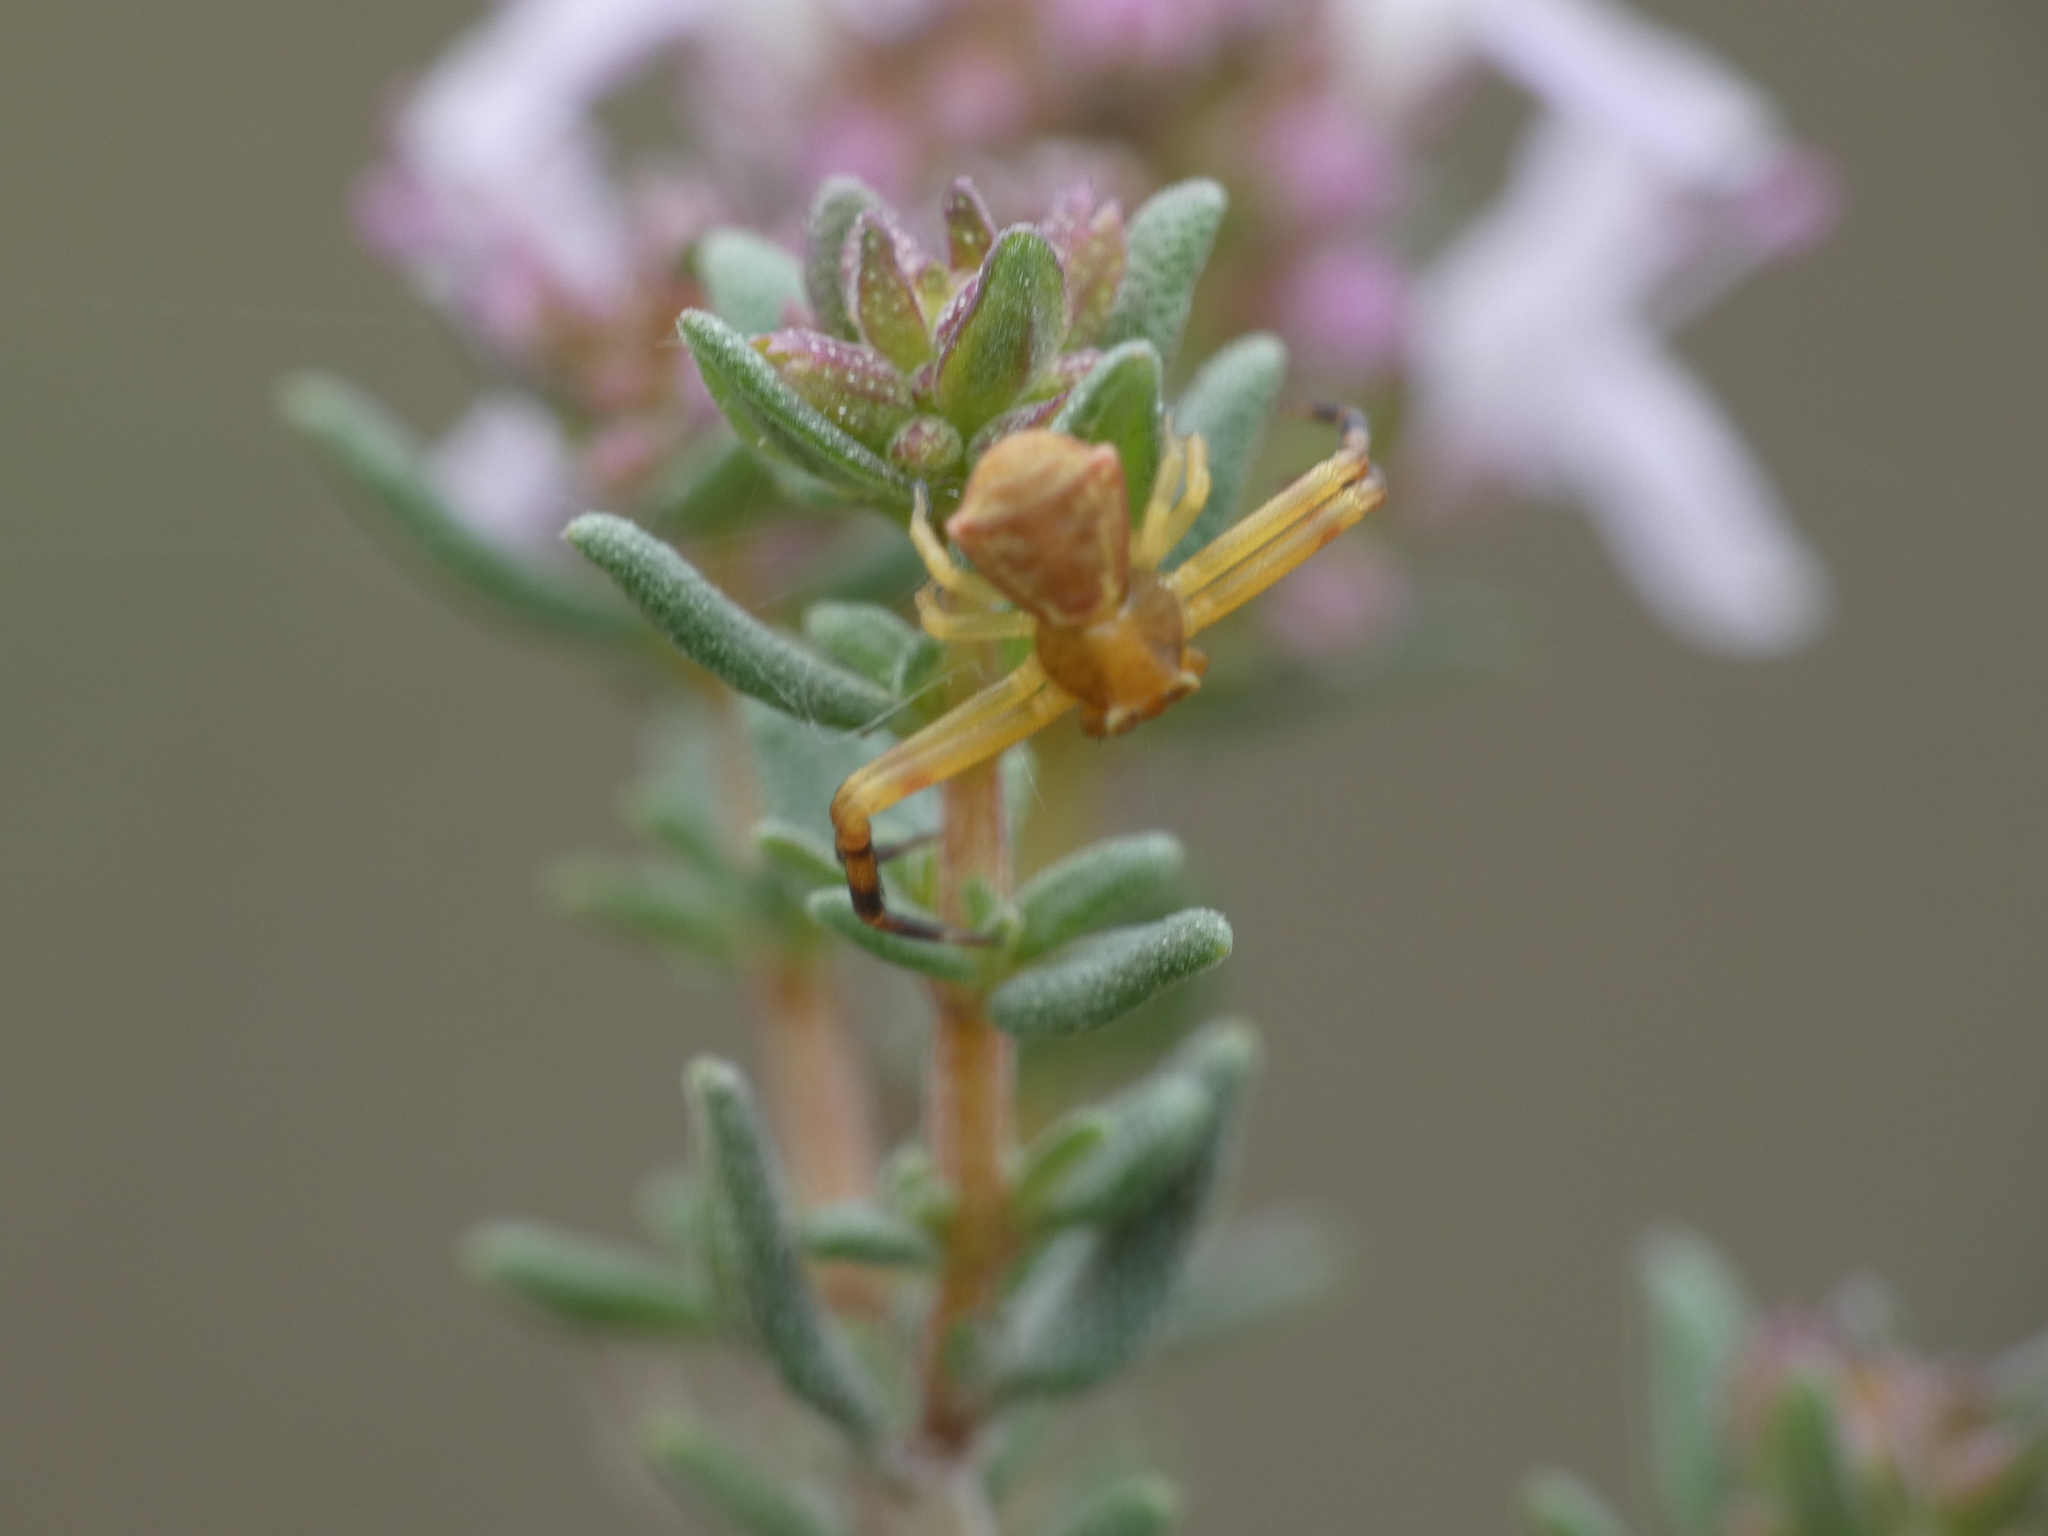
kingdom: Animalia
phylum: Arthropoda
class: Arachnida
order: Araneae
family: Thomisidae
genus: Thomisus
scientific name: Thomisus onustus
